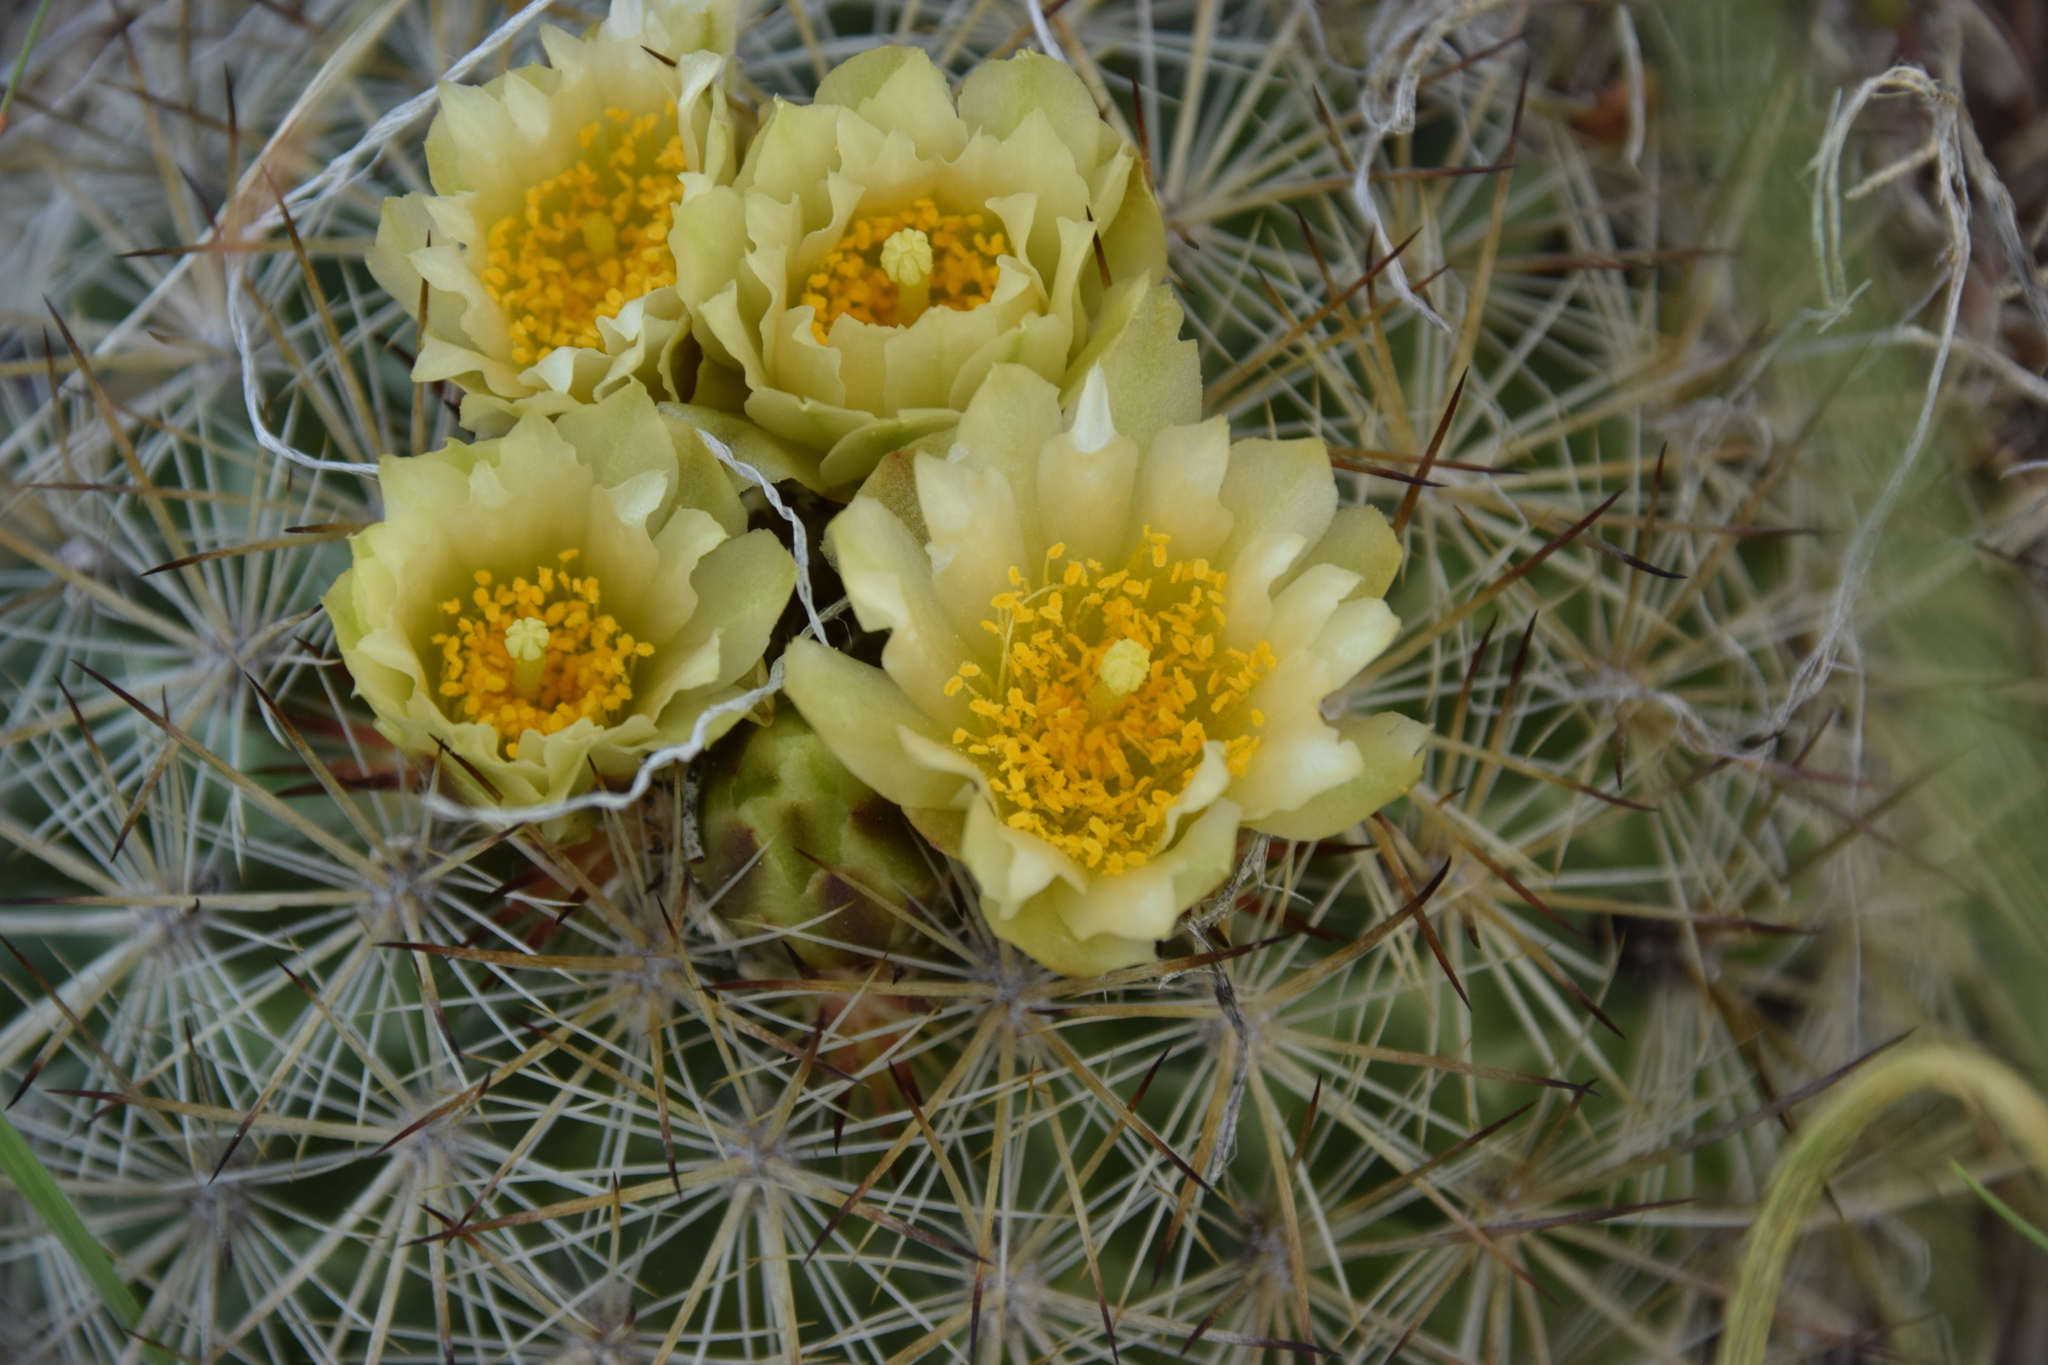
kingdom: Plantae
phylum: Tracheophyta
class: Magnoliopsida
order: Caryophyllales
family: Cactaceae
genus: Pediocactus
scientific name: Pediocactus simpsonii
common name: Simpson's hedgehog cactus
